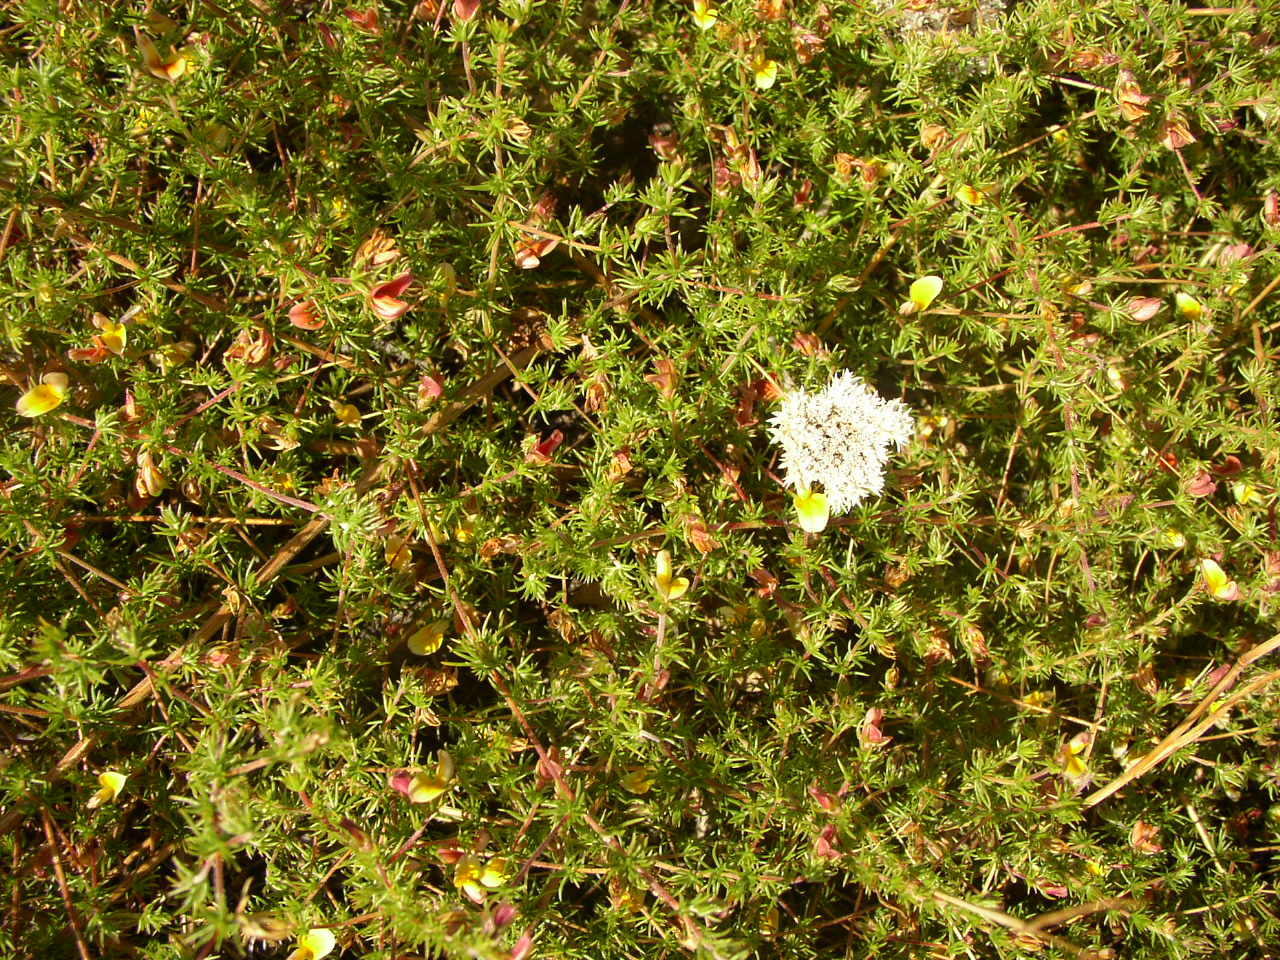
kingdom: Plantae
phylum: Tracheophyta
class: Magnoliopsida
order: Fabales
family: Fabaceae
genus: Aspalathus
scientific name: Aspalathus retroflexa
